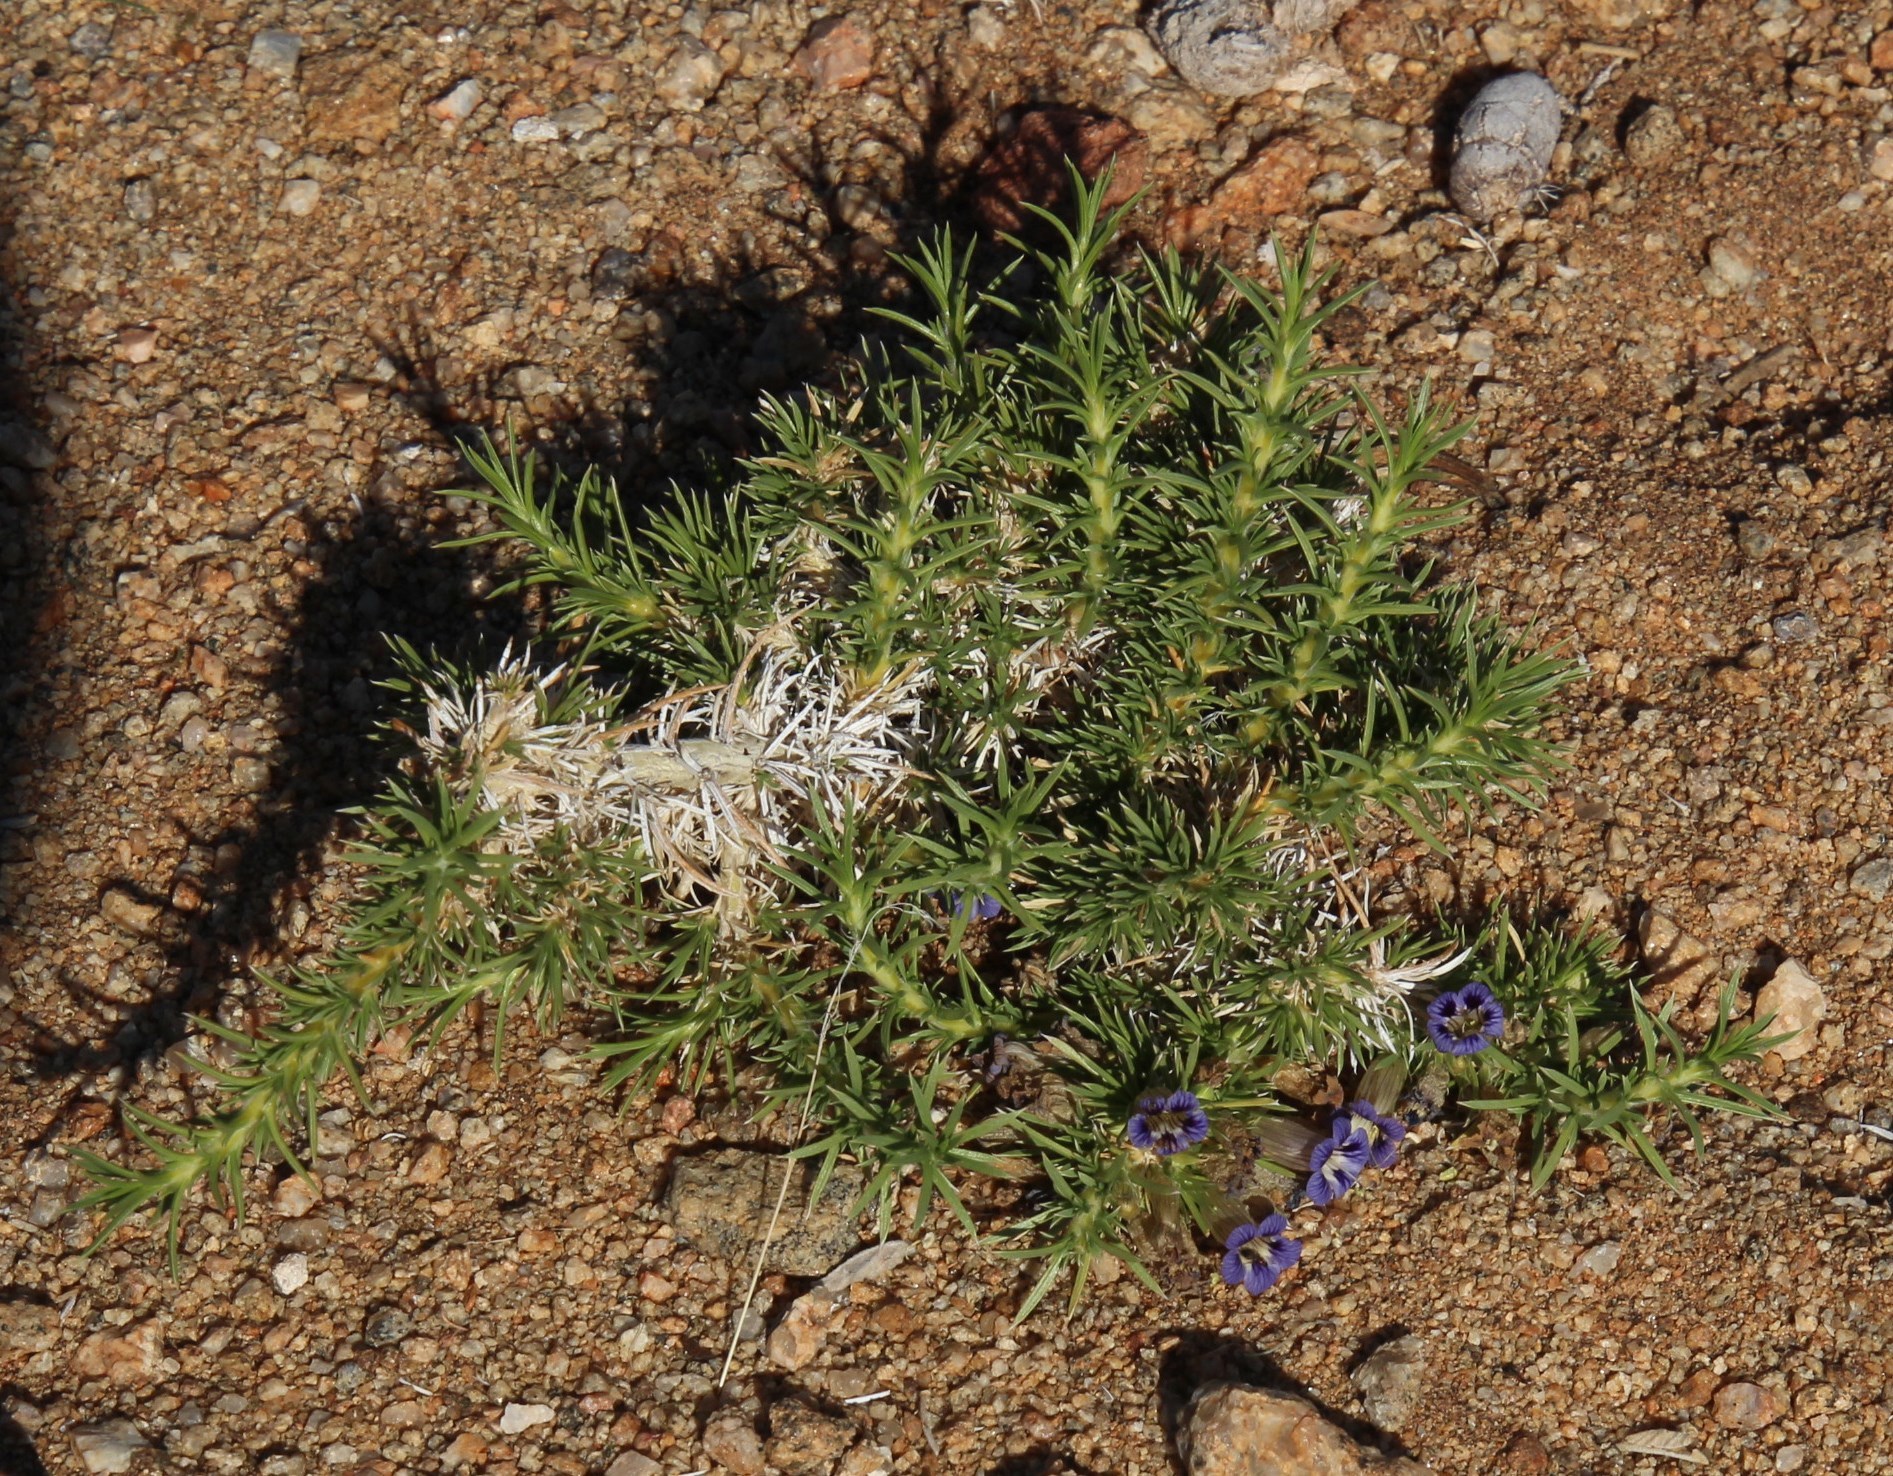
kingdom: Plantae
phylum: Tracheophyta
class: Magnoliopsida
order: Lamiales
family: Scrophulariaceae
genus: Aptosimum
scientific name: Aptosimum spinescens
